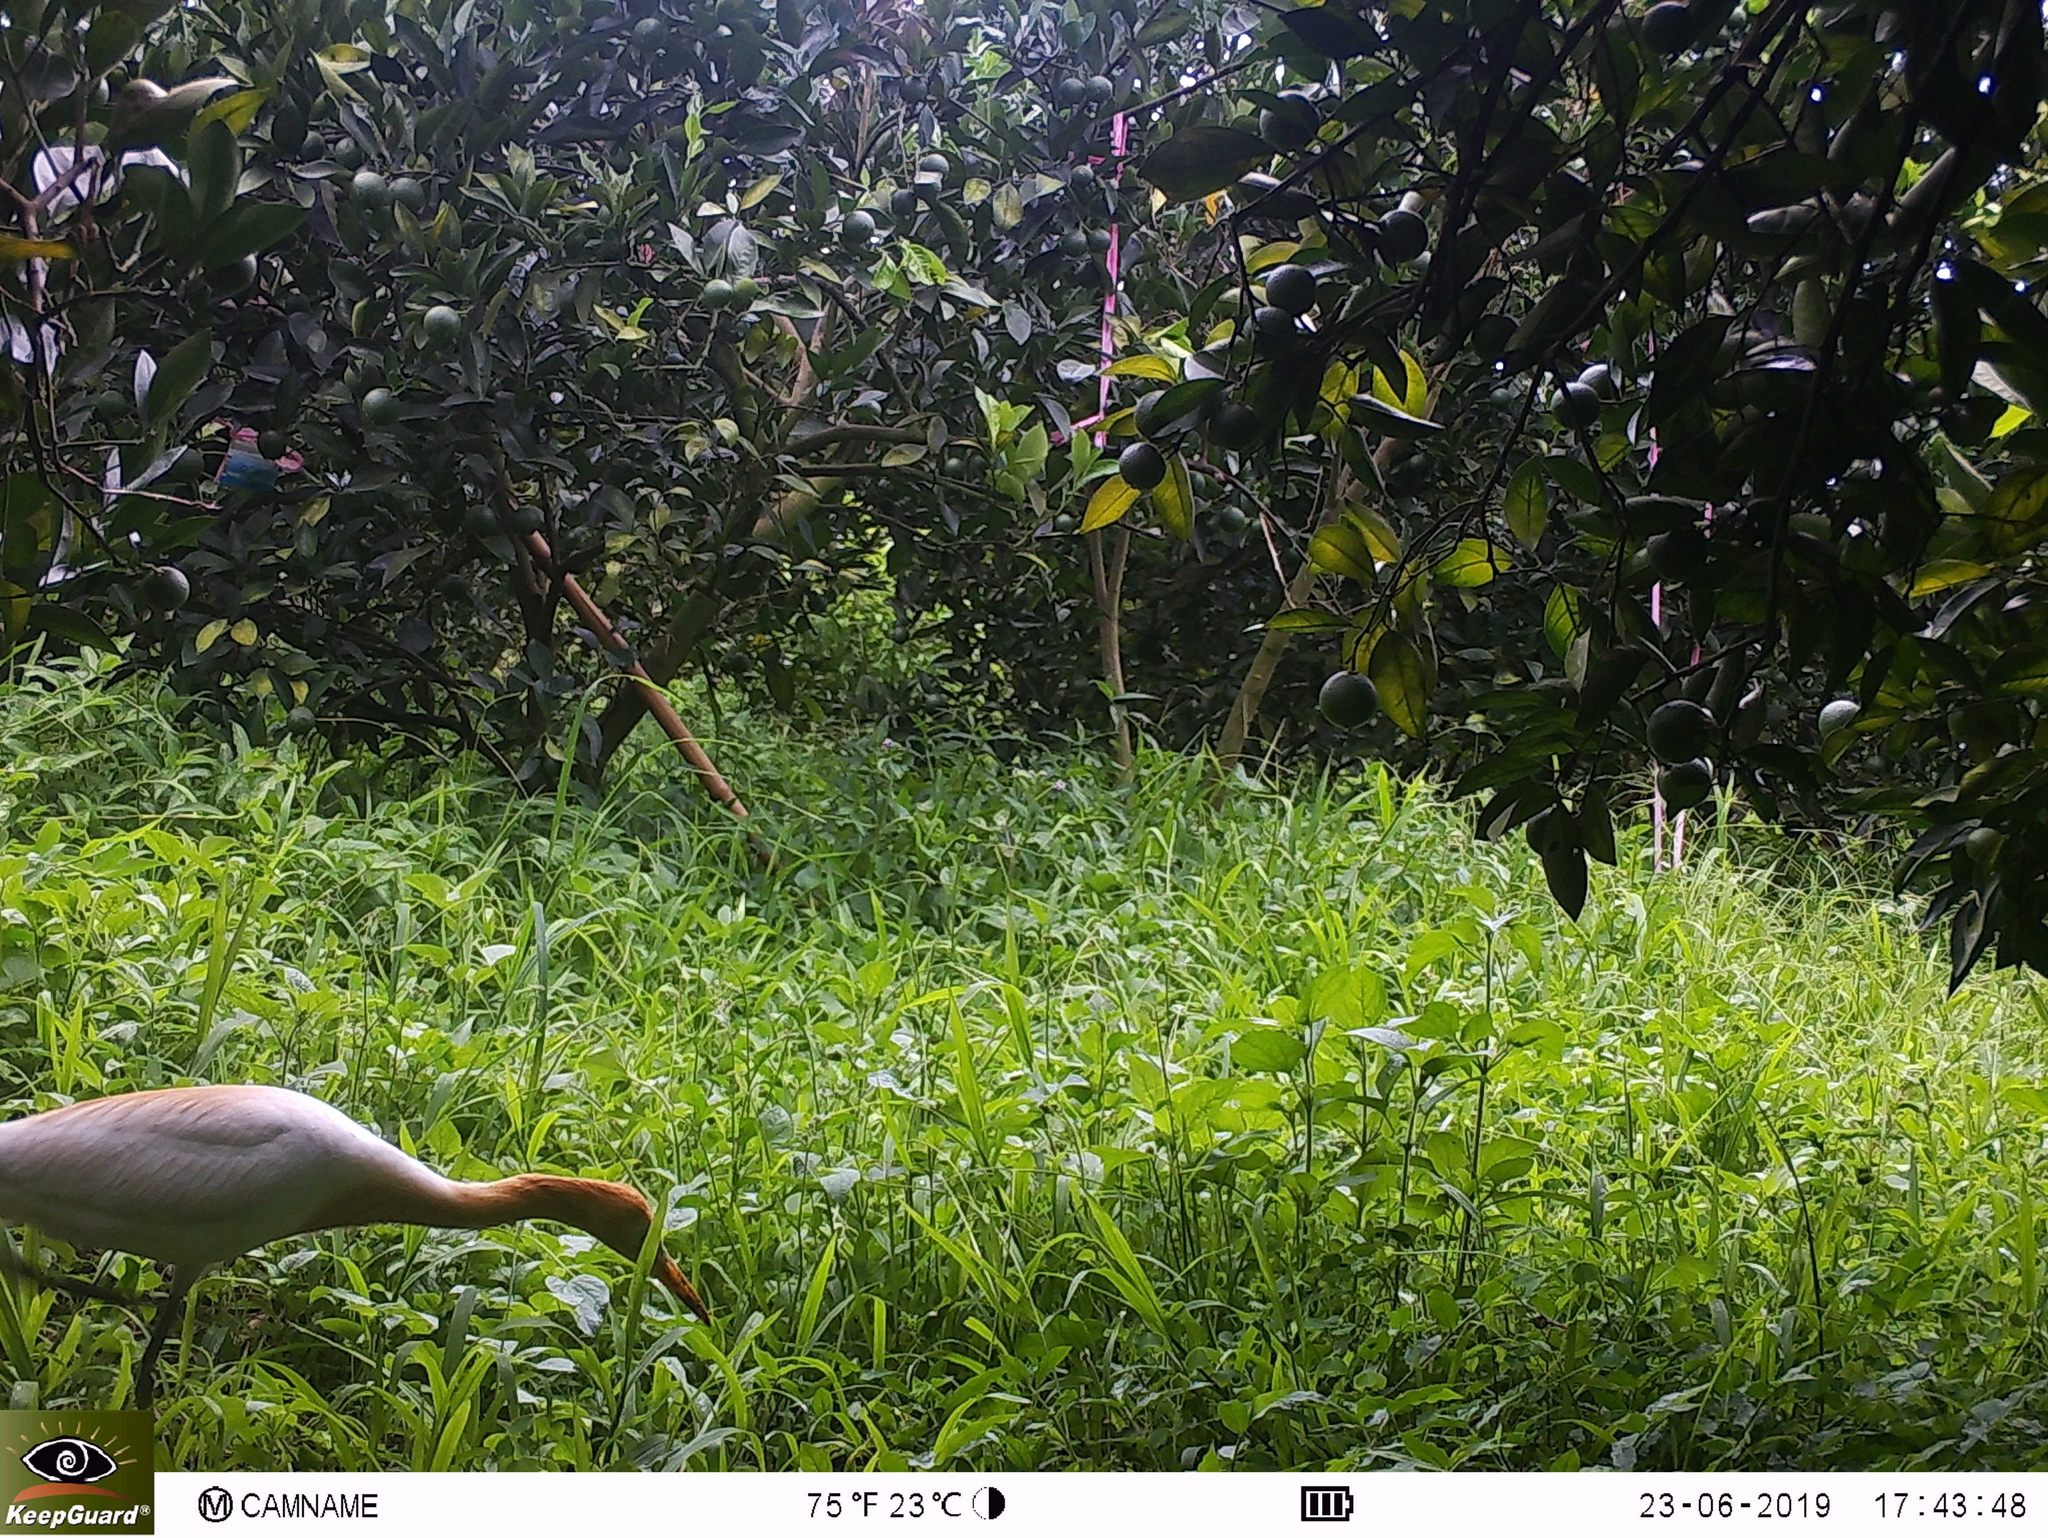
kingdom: Animalia
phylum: Chordata
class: Aves
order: Pelecaniformes
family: Ardeidae
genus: Bubulcus
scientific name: Bubulcus coromandus
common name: Eastern cattle egret
